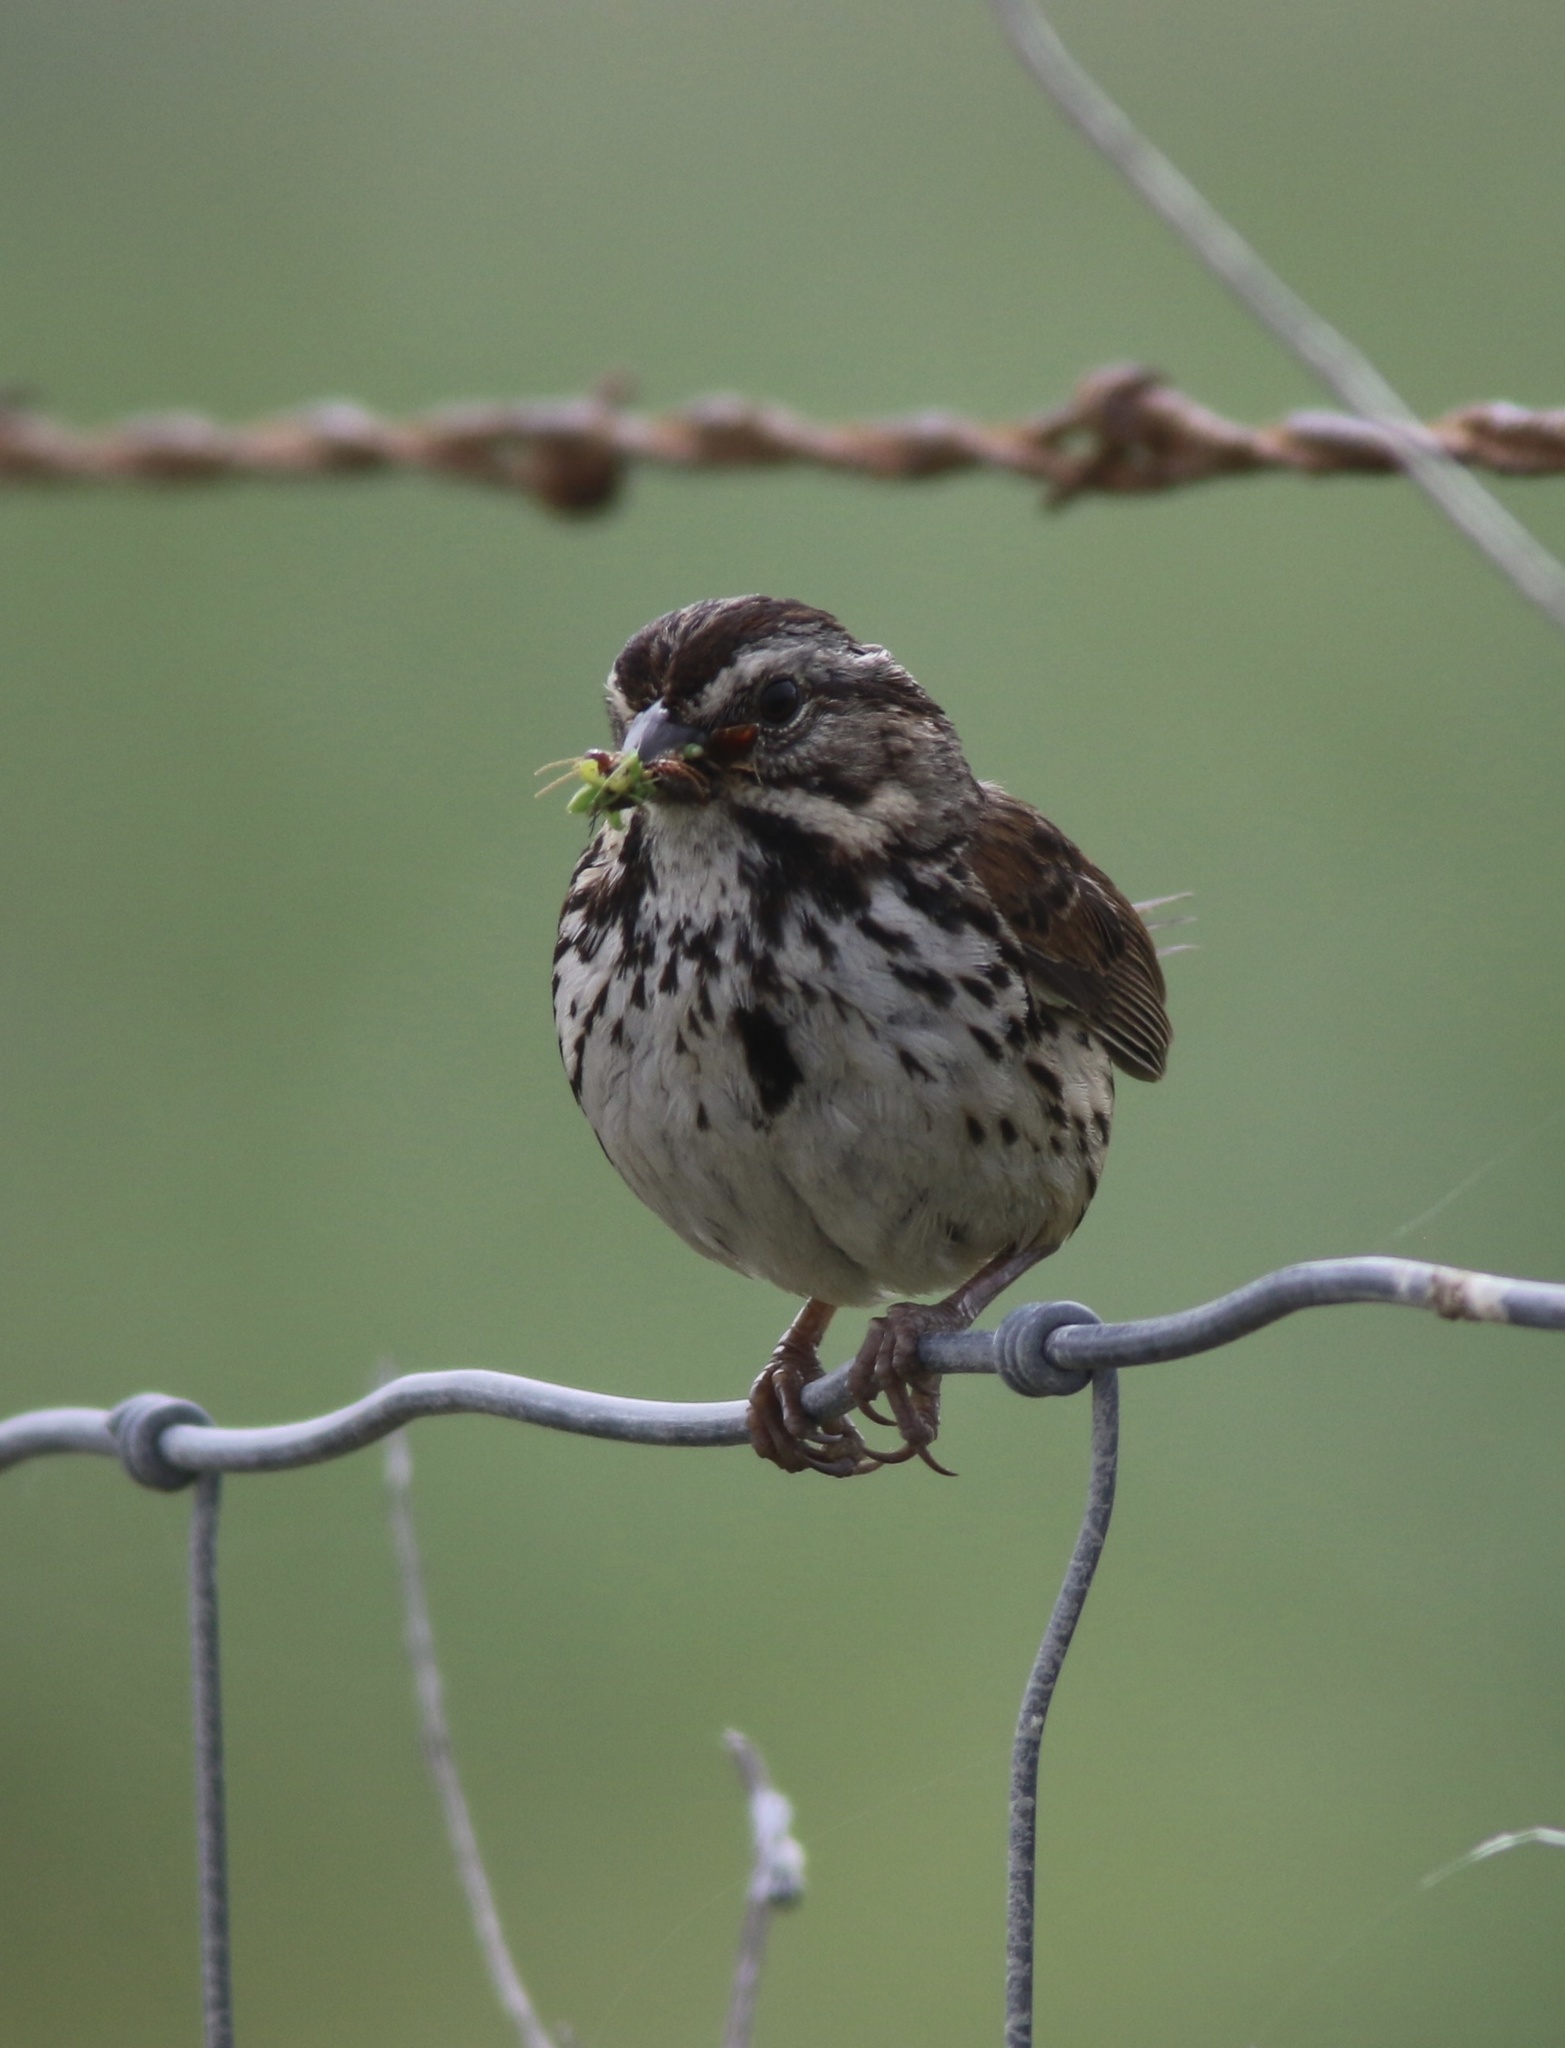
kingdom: Animalia
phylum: Chordata
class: Aves
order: Passeriformes
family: Passerellidae
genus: Melospiza
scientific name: Melospiza melodia
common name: Song sparrow
